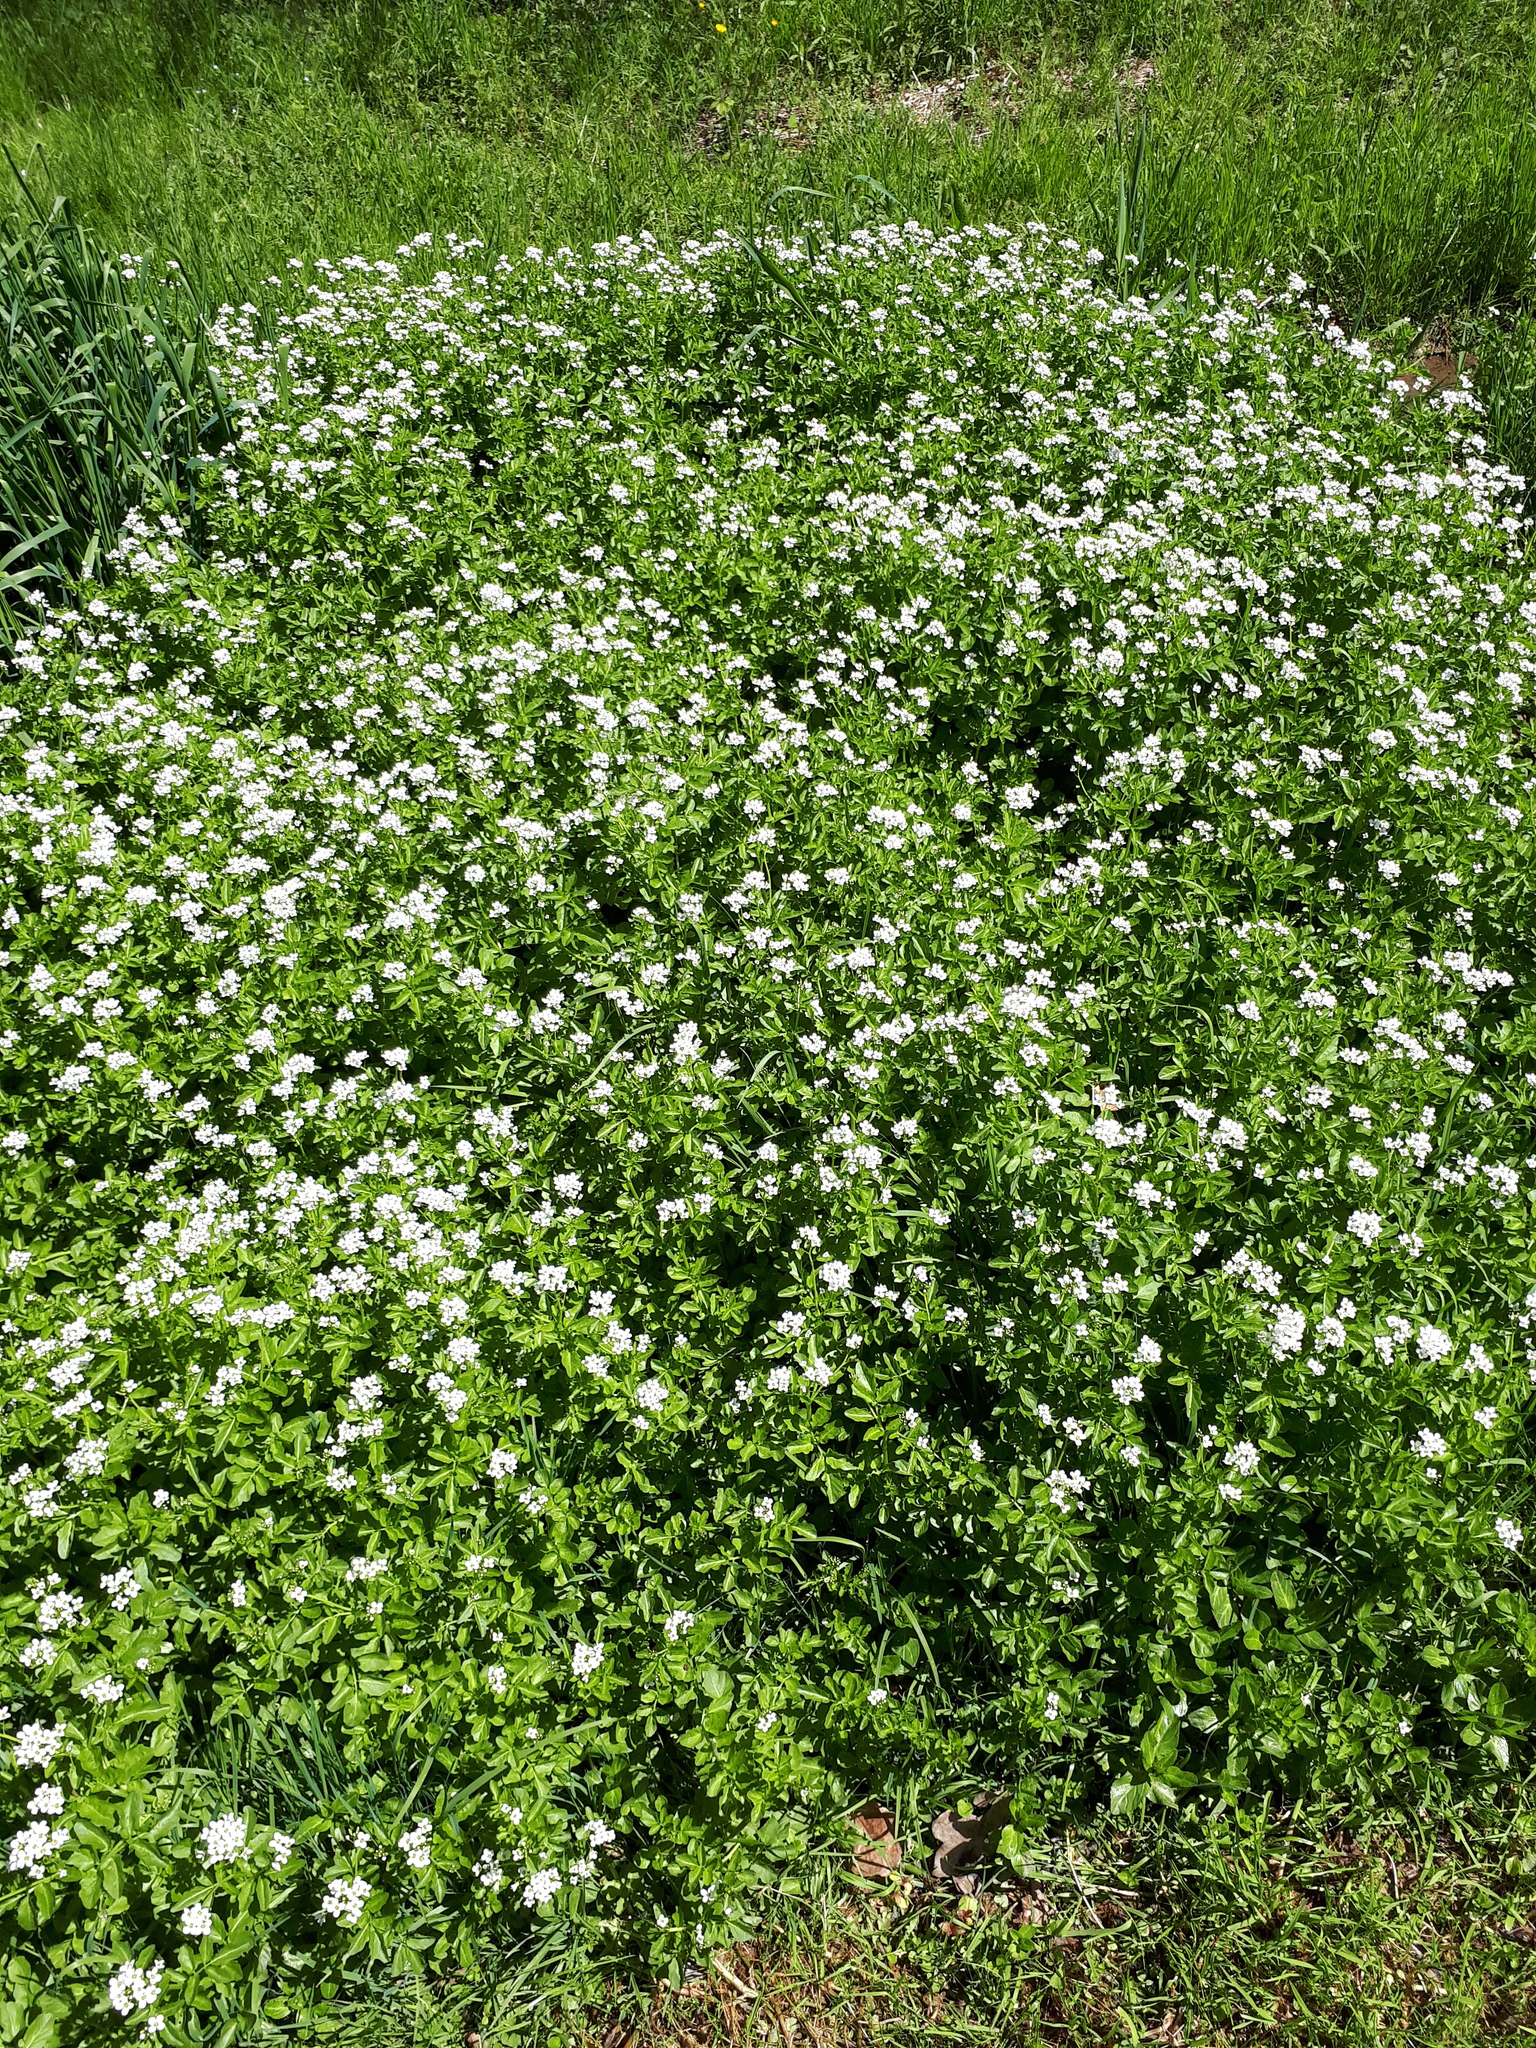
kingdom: Plantae
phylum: Tracheophyta
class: Magnoliopsida
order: Brassicales
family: Brassicaceae
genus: Cardamine
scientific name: Cardamine amara
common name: Large bitter-cress
